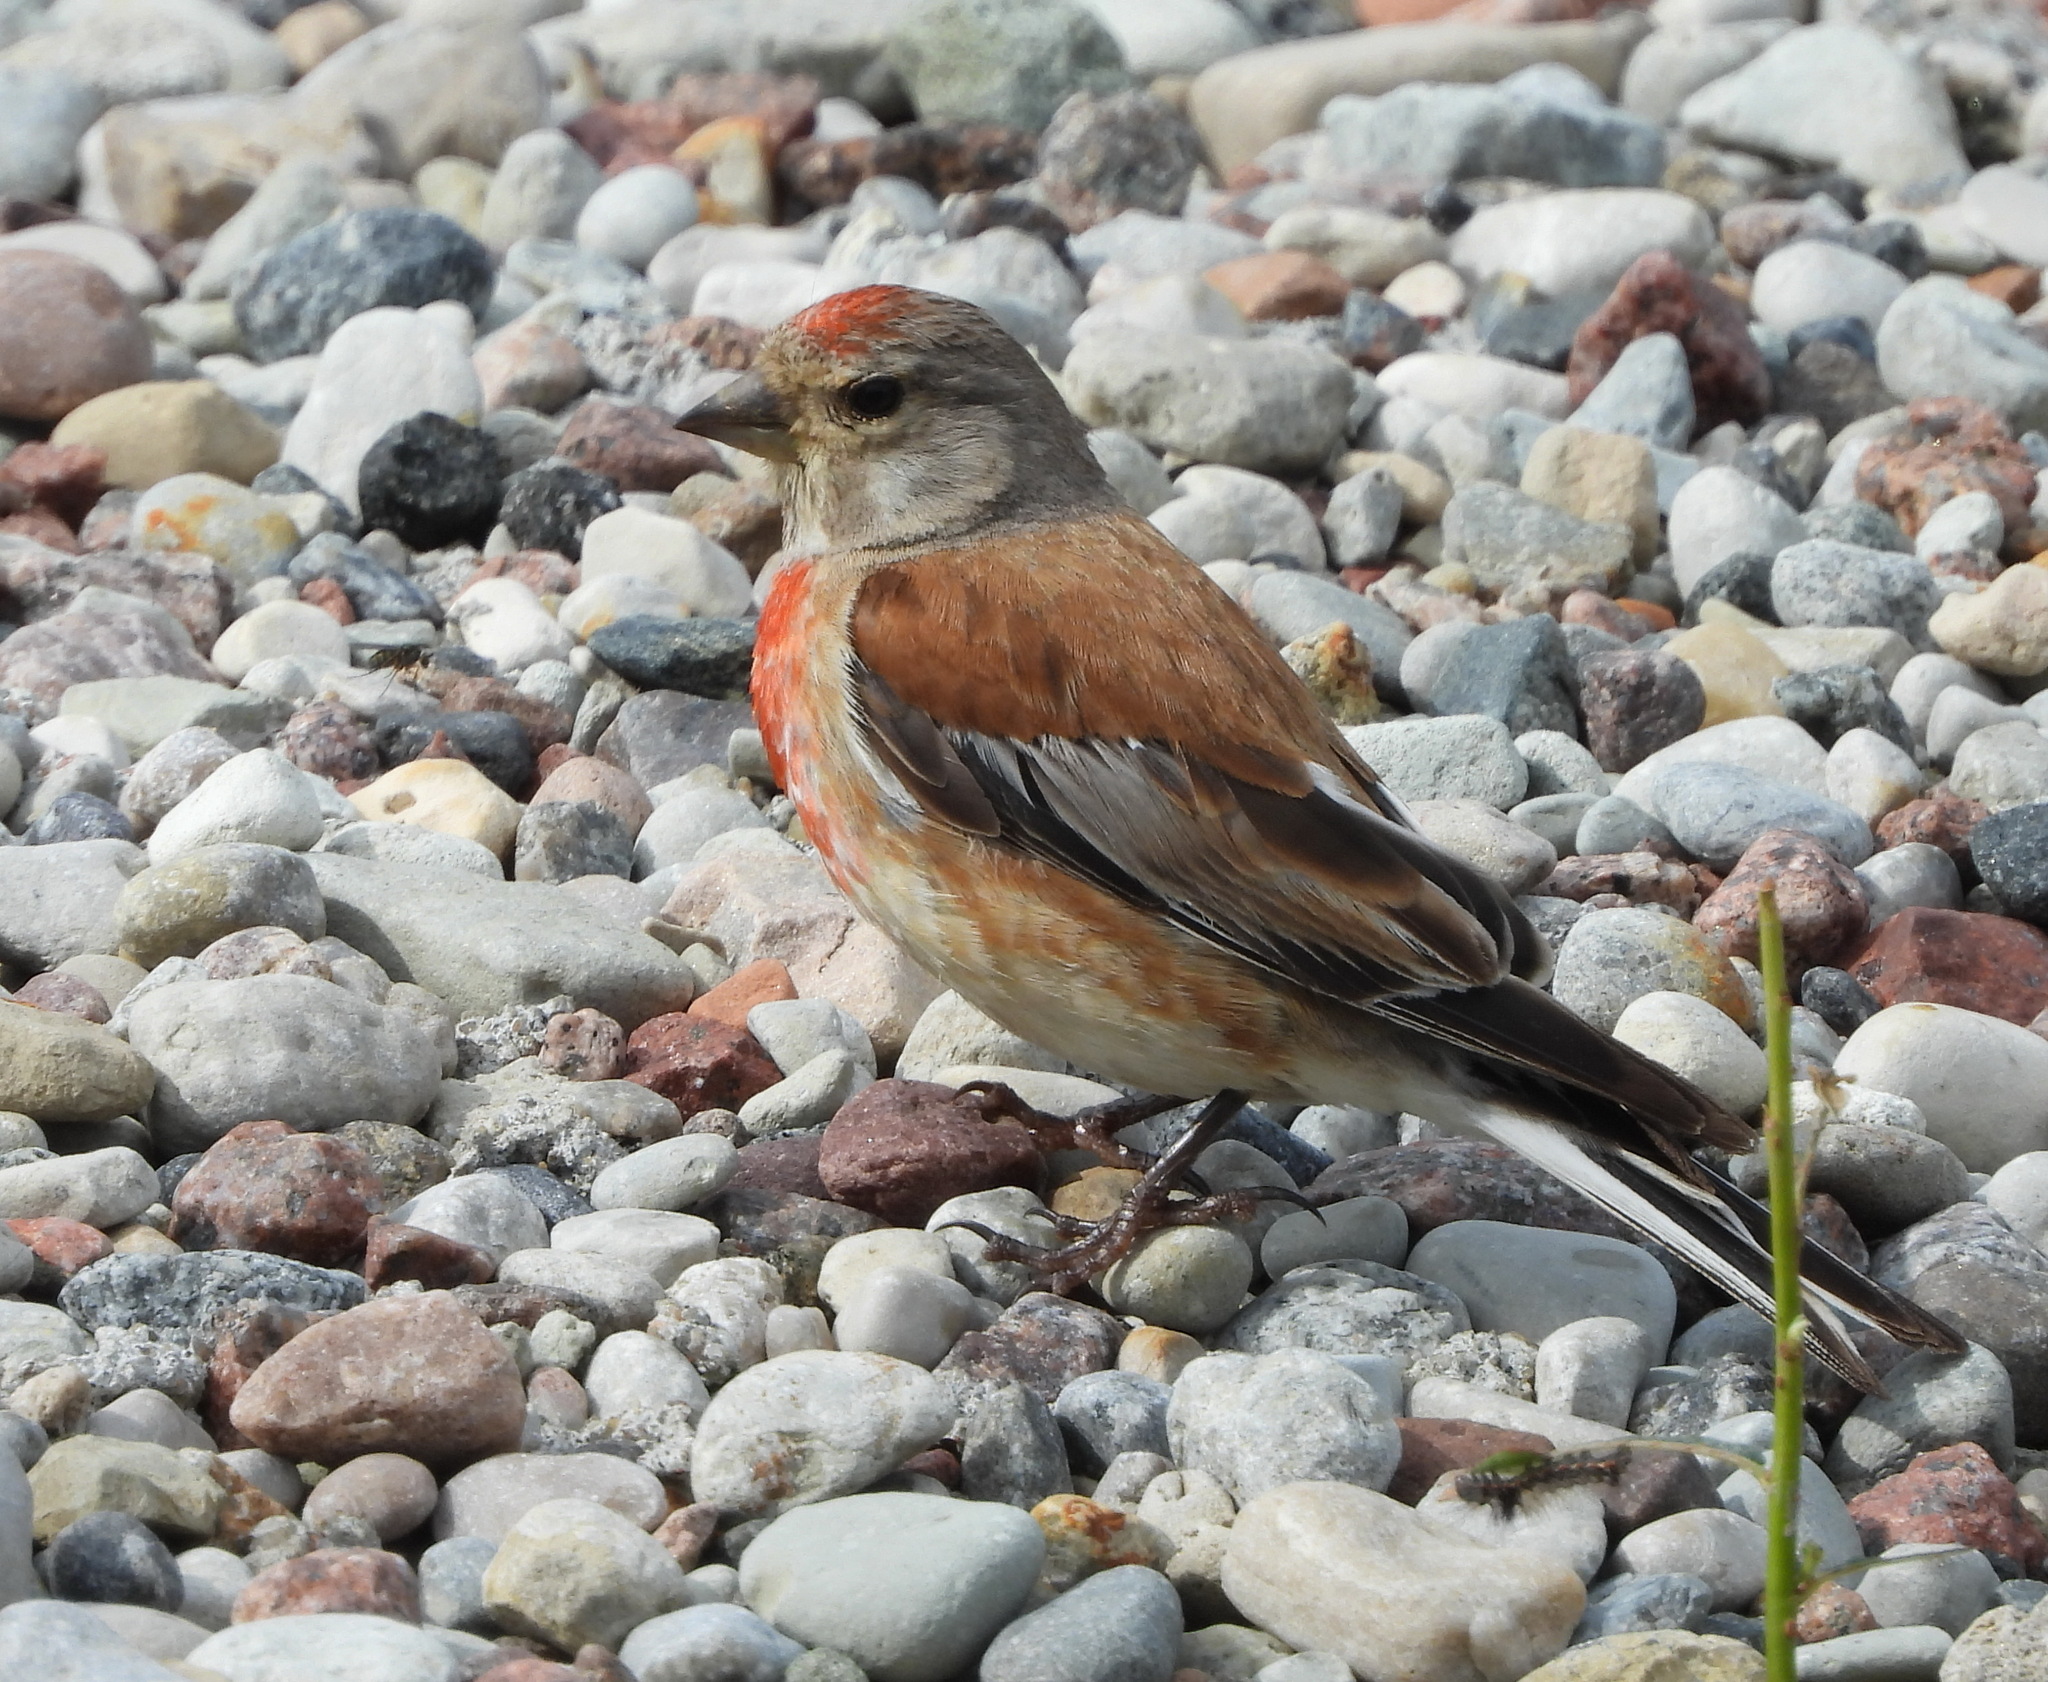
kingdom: Animalia
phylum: Chordata
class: Aves
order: Passeriformes
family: Fringillidae
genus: Linaria
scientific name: Linaria cannabina
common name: Common linnet
